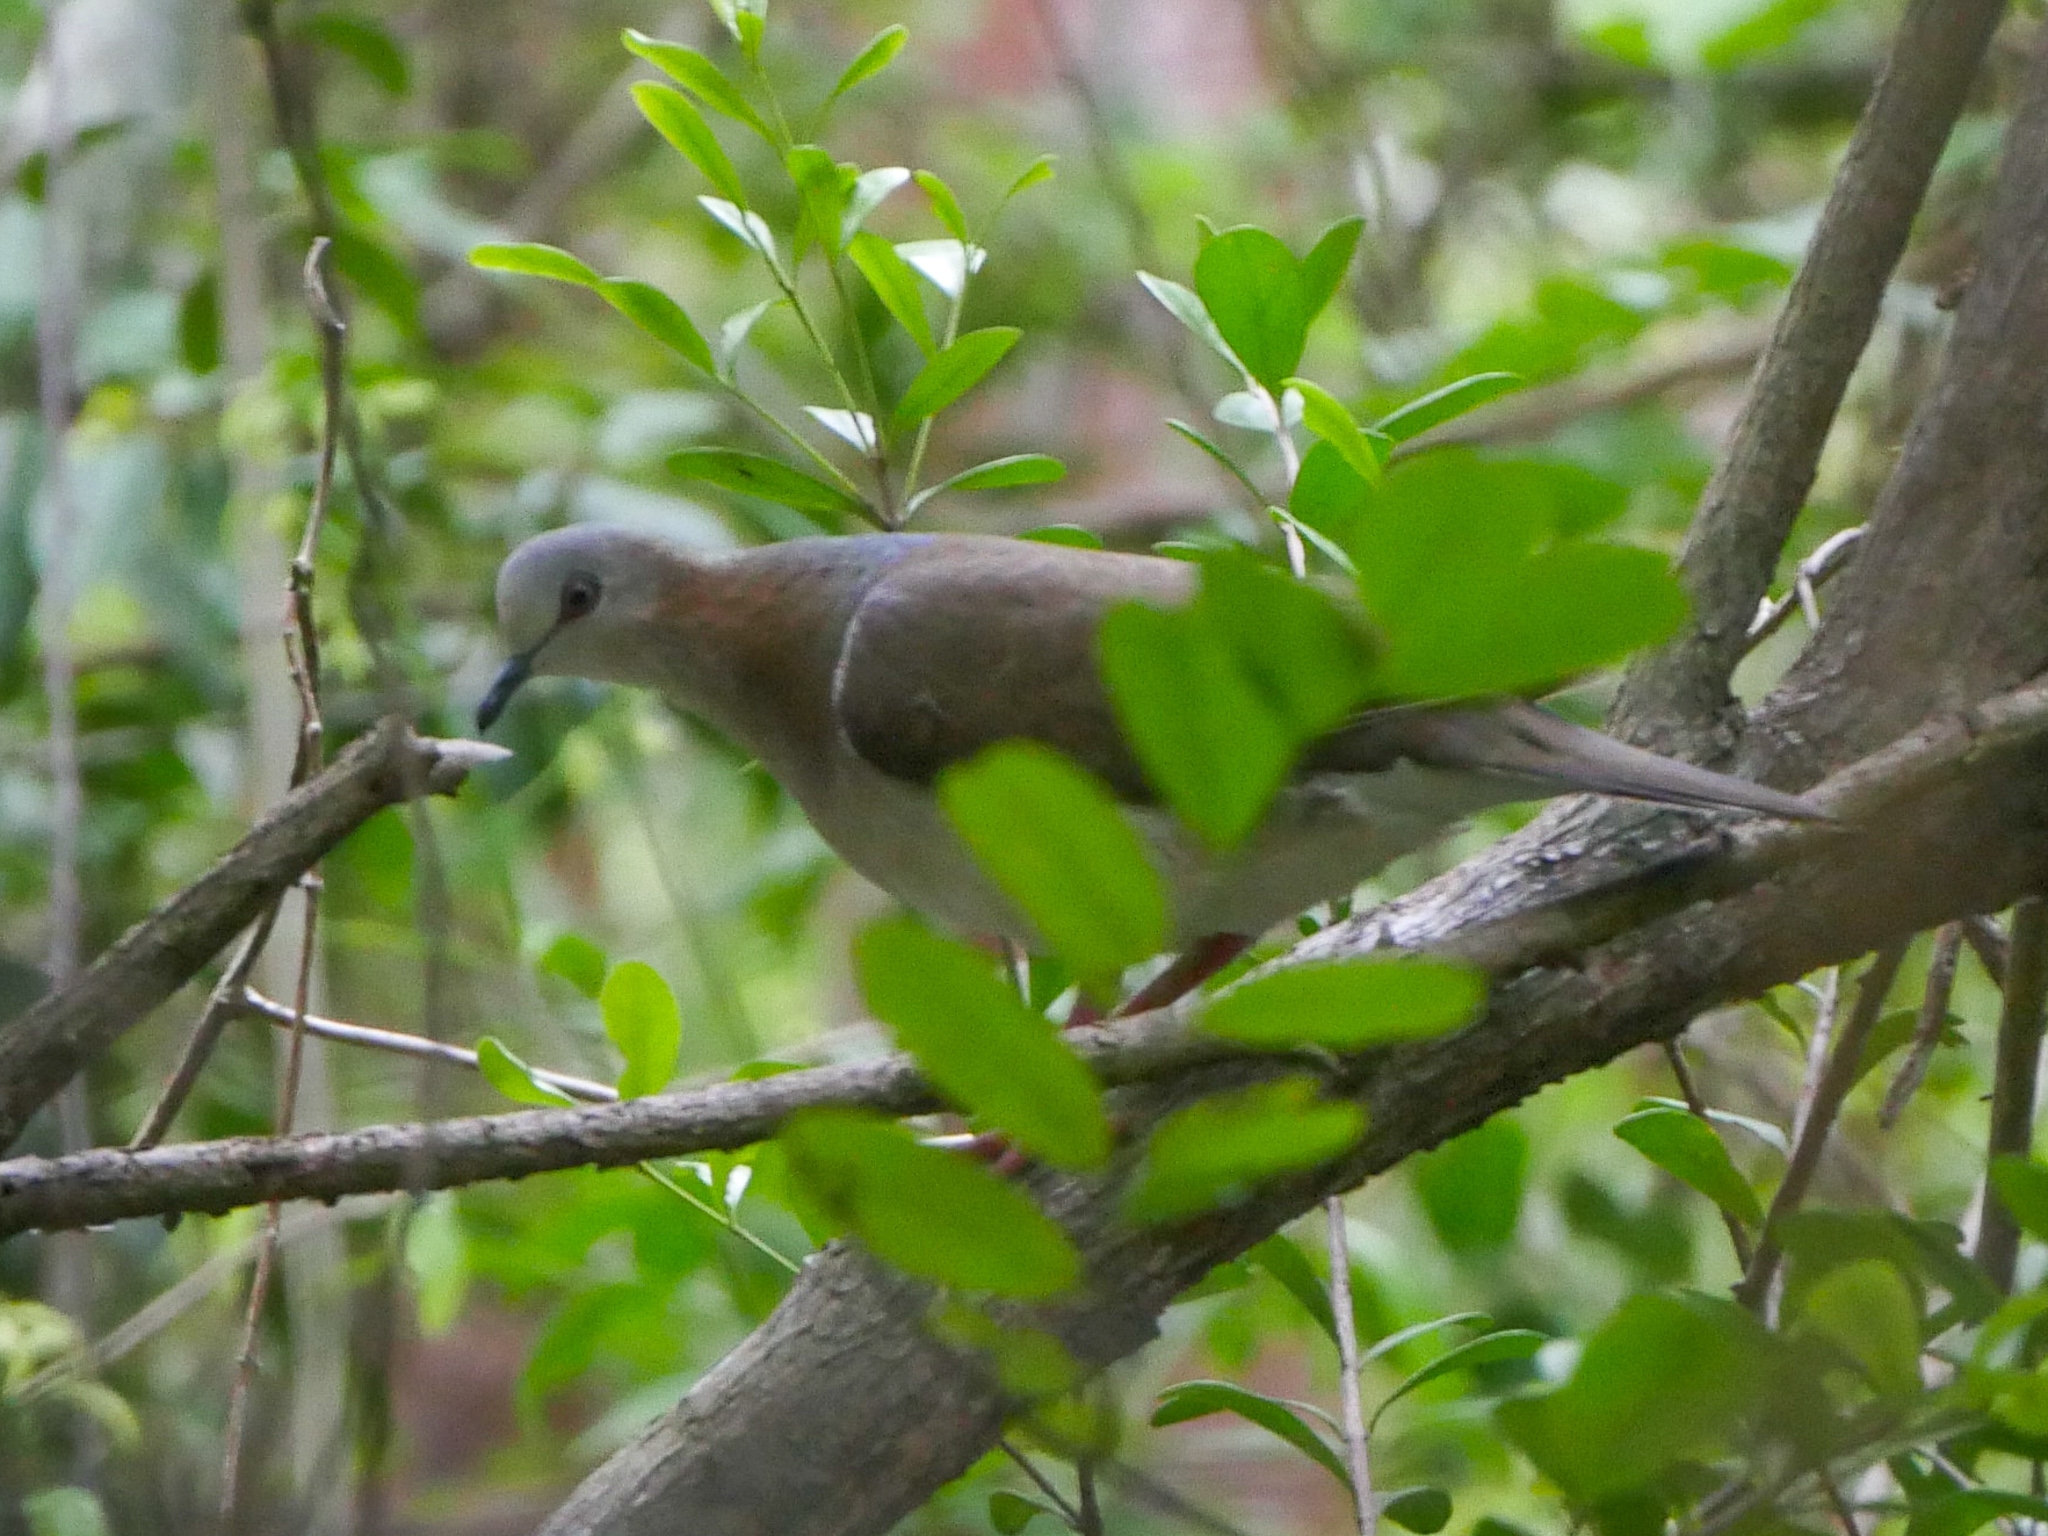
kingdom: Animalia
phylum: Chordata
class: Aves
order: Columbiformes
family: Columbidae
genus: Leptotila
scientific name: Leptotila jamaicensis
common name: Caribbean dove
